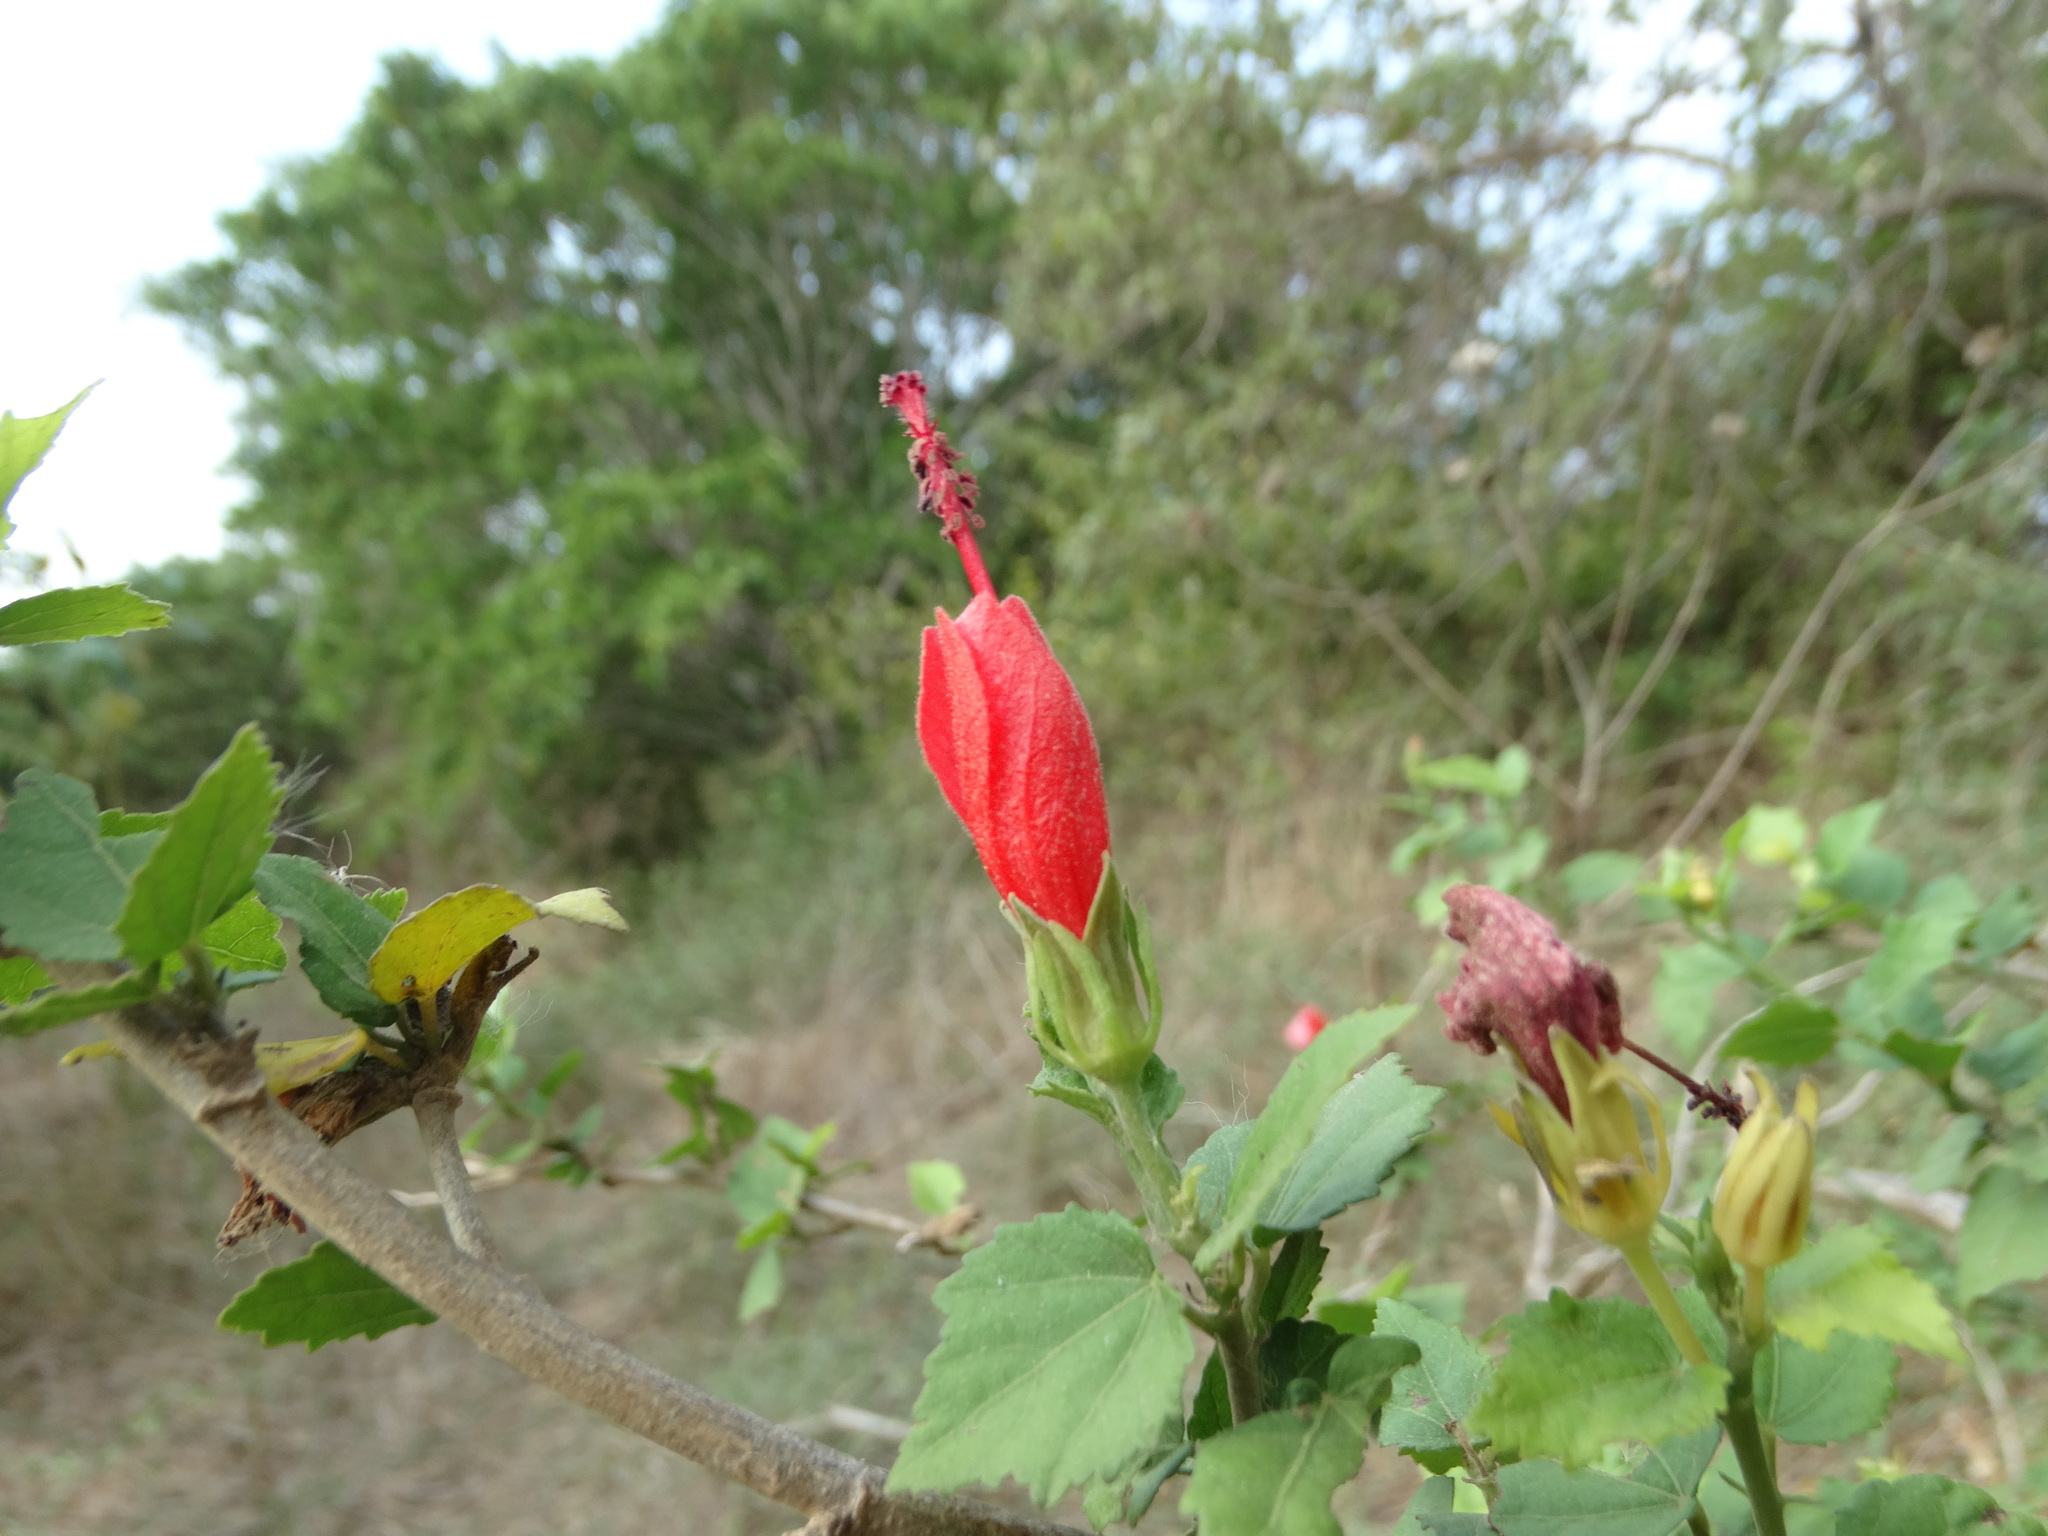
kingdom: Plantae
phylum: Tracheophyta
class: Magnoliopsida
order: Malvales
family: Malvaceae
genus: Malvaviscus
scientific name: Malvaviscus arboreus
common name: Wax mallow
